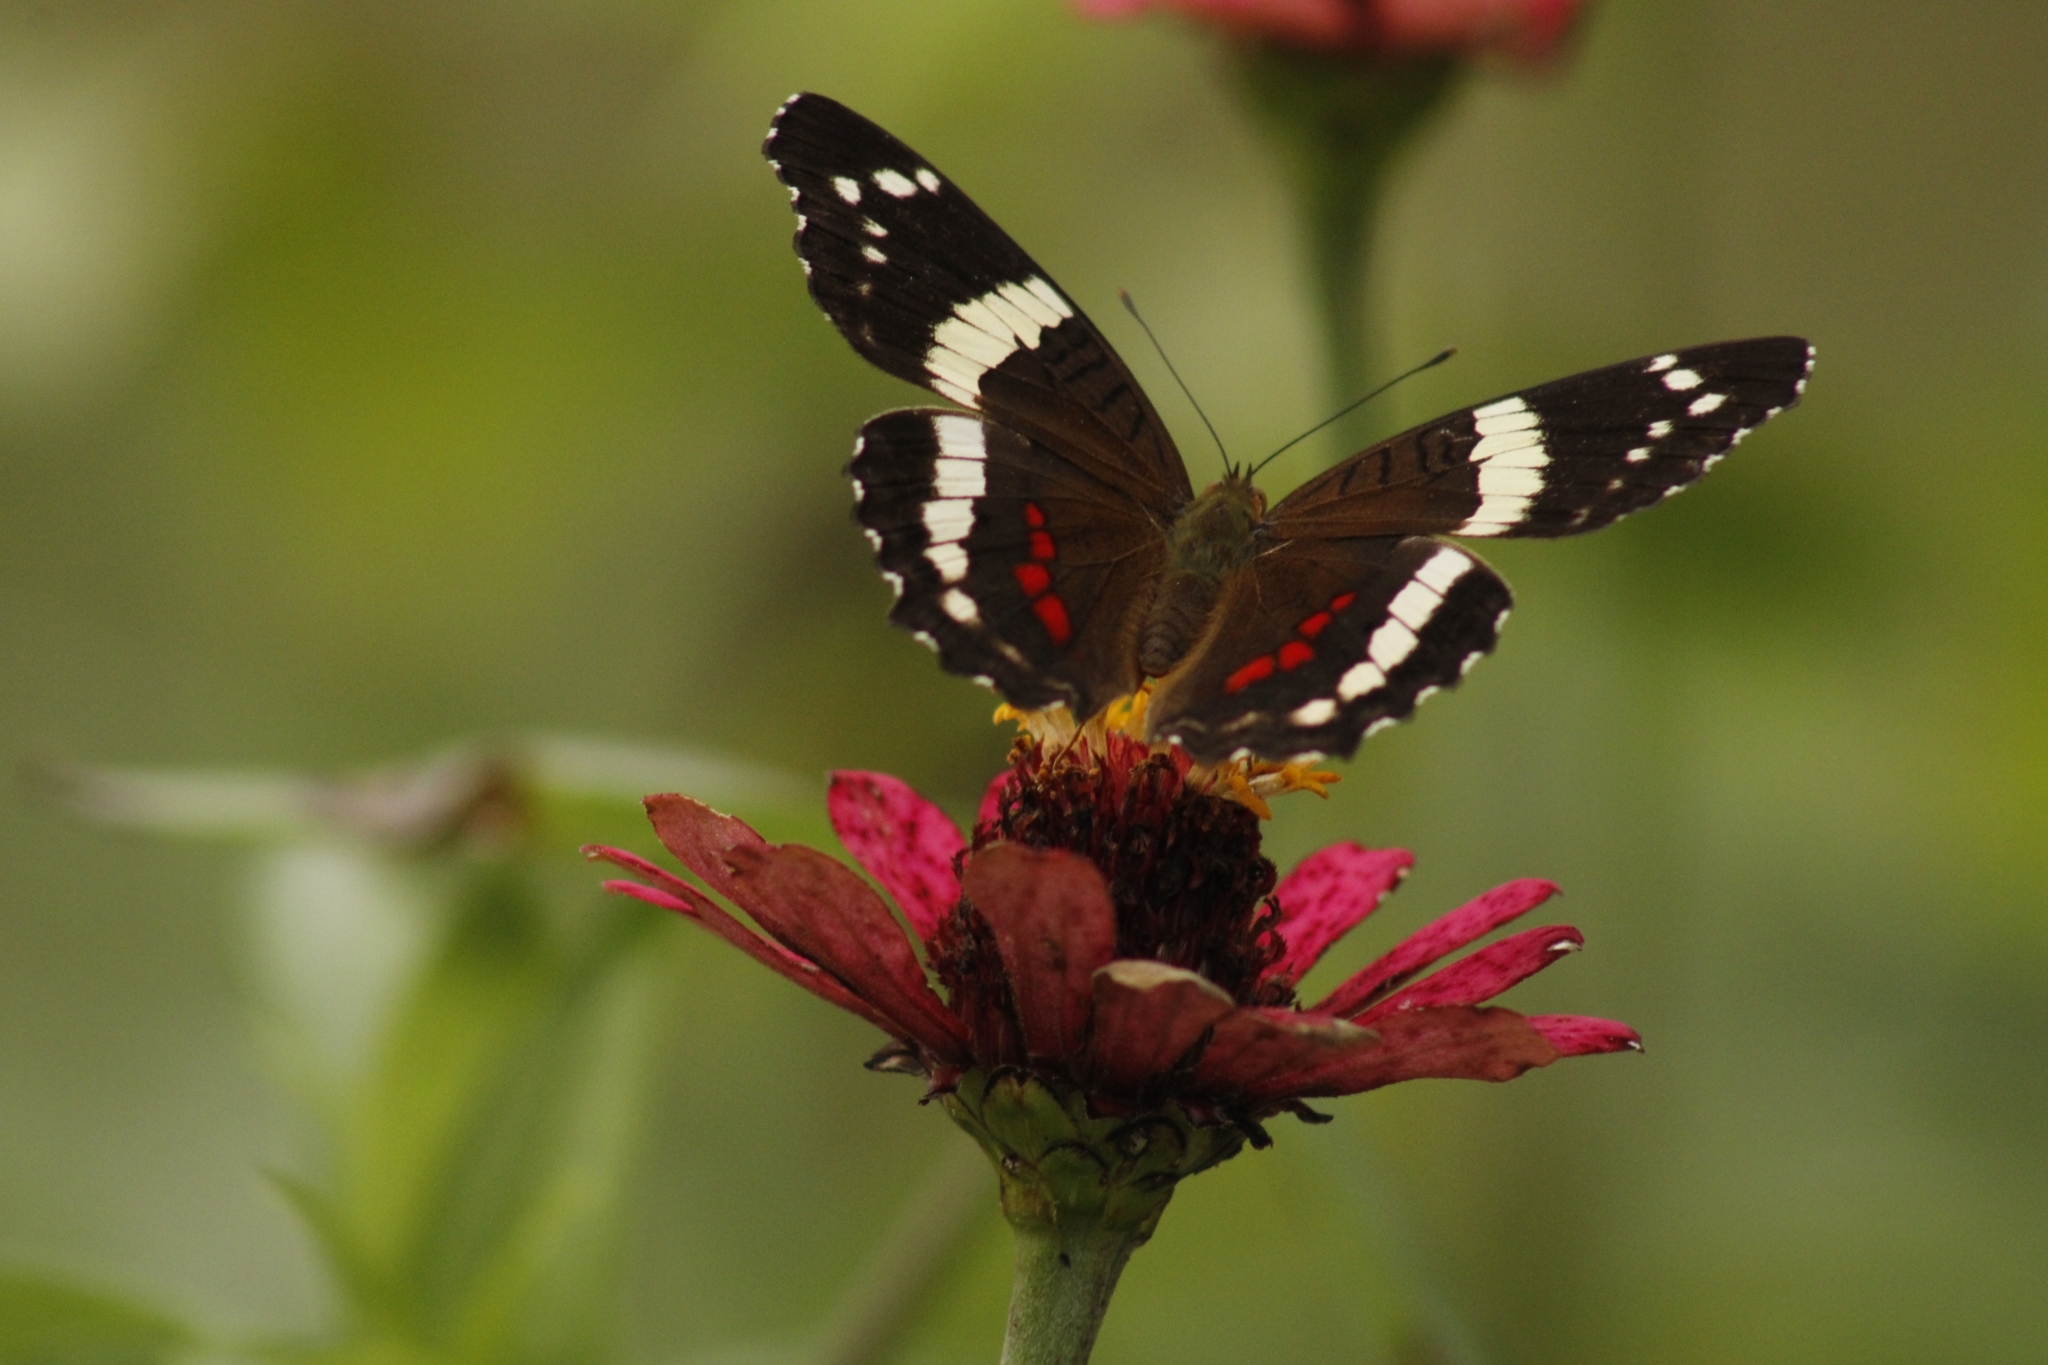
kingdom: Animalia
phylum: Arthropoda
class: Insecta
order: Lepidoptera
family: Nymphalidae
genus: Anartia
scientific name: Anartia fatima
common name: Banded peacock
